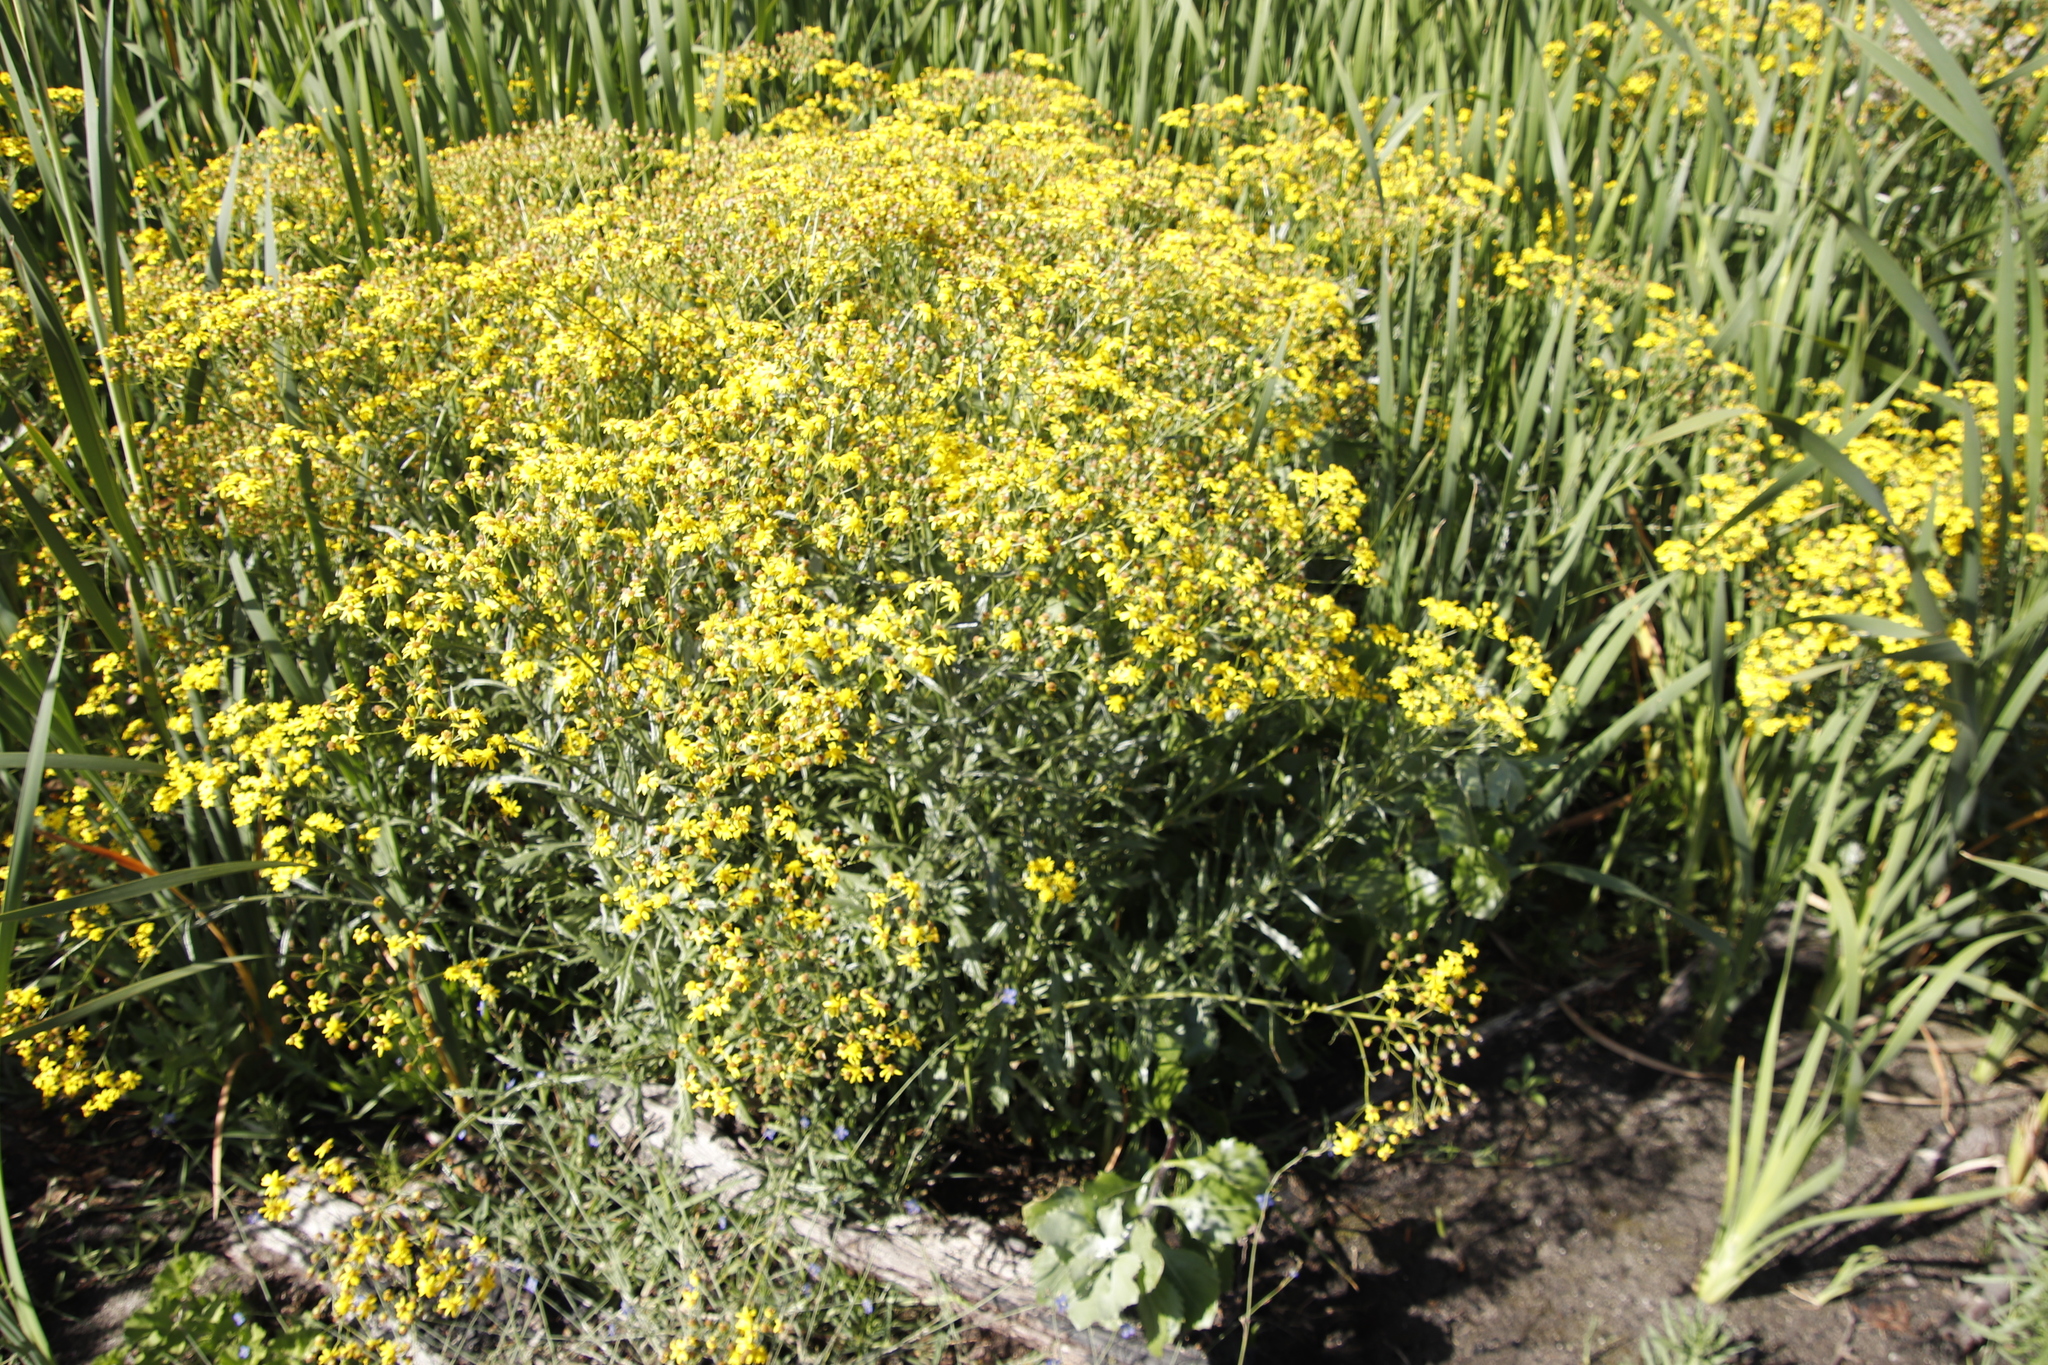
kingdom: Plantae
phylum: Tracheophyta
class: Magnoliopsida
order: Asterales
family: Asteraceae
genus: Senecio
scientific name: Senecio pterophorus
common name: Shoddy ragwort
